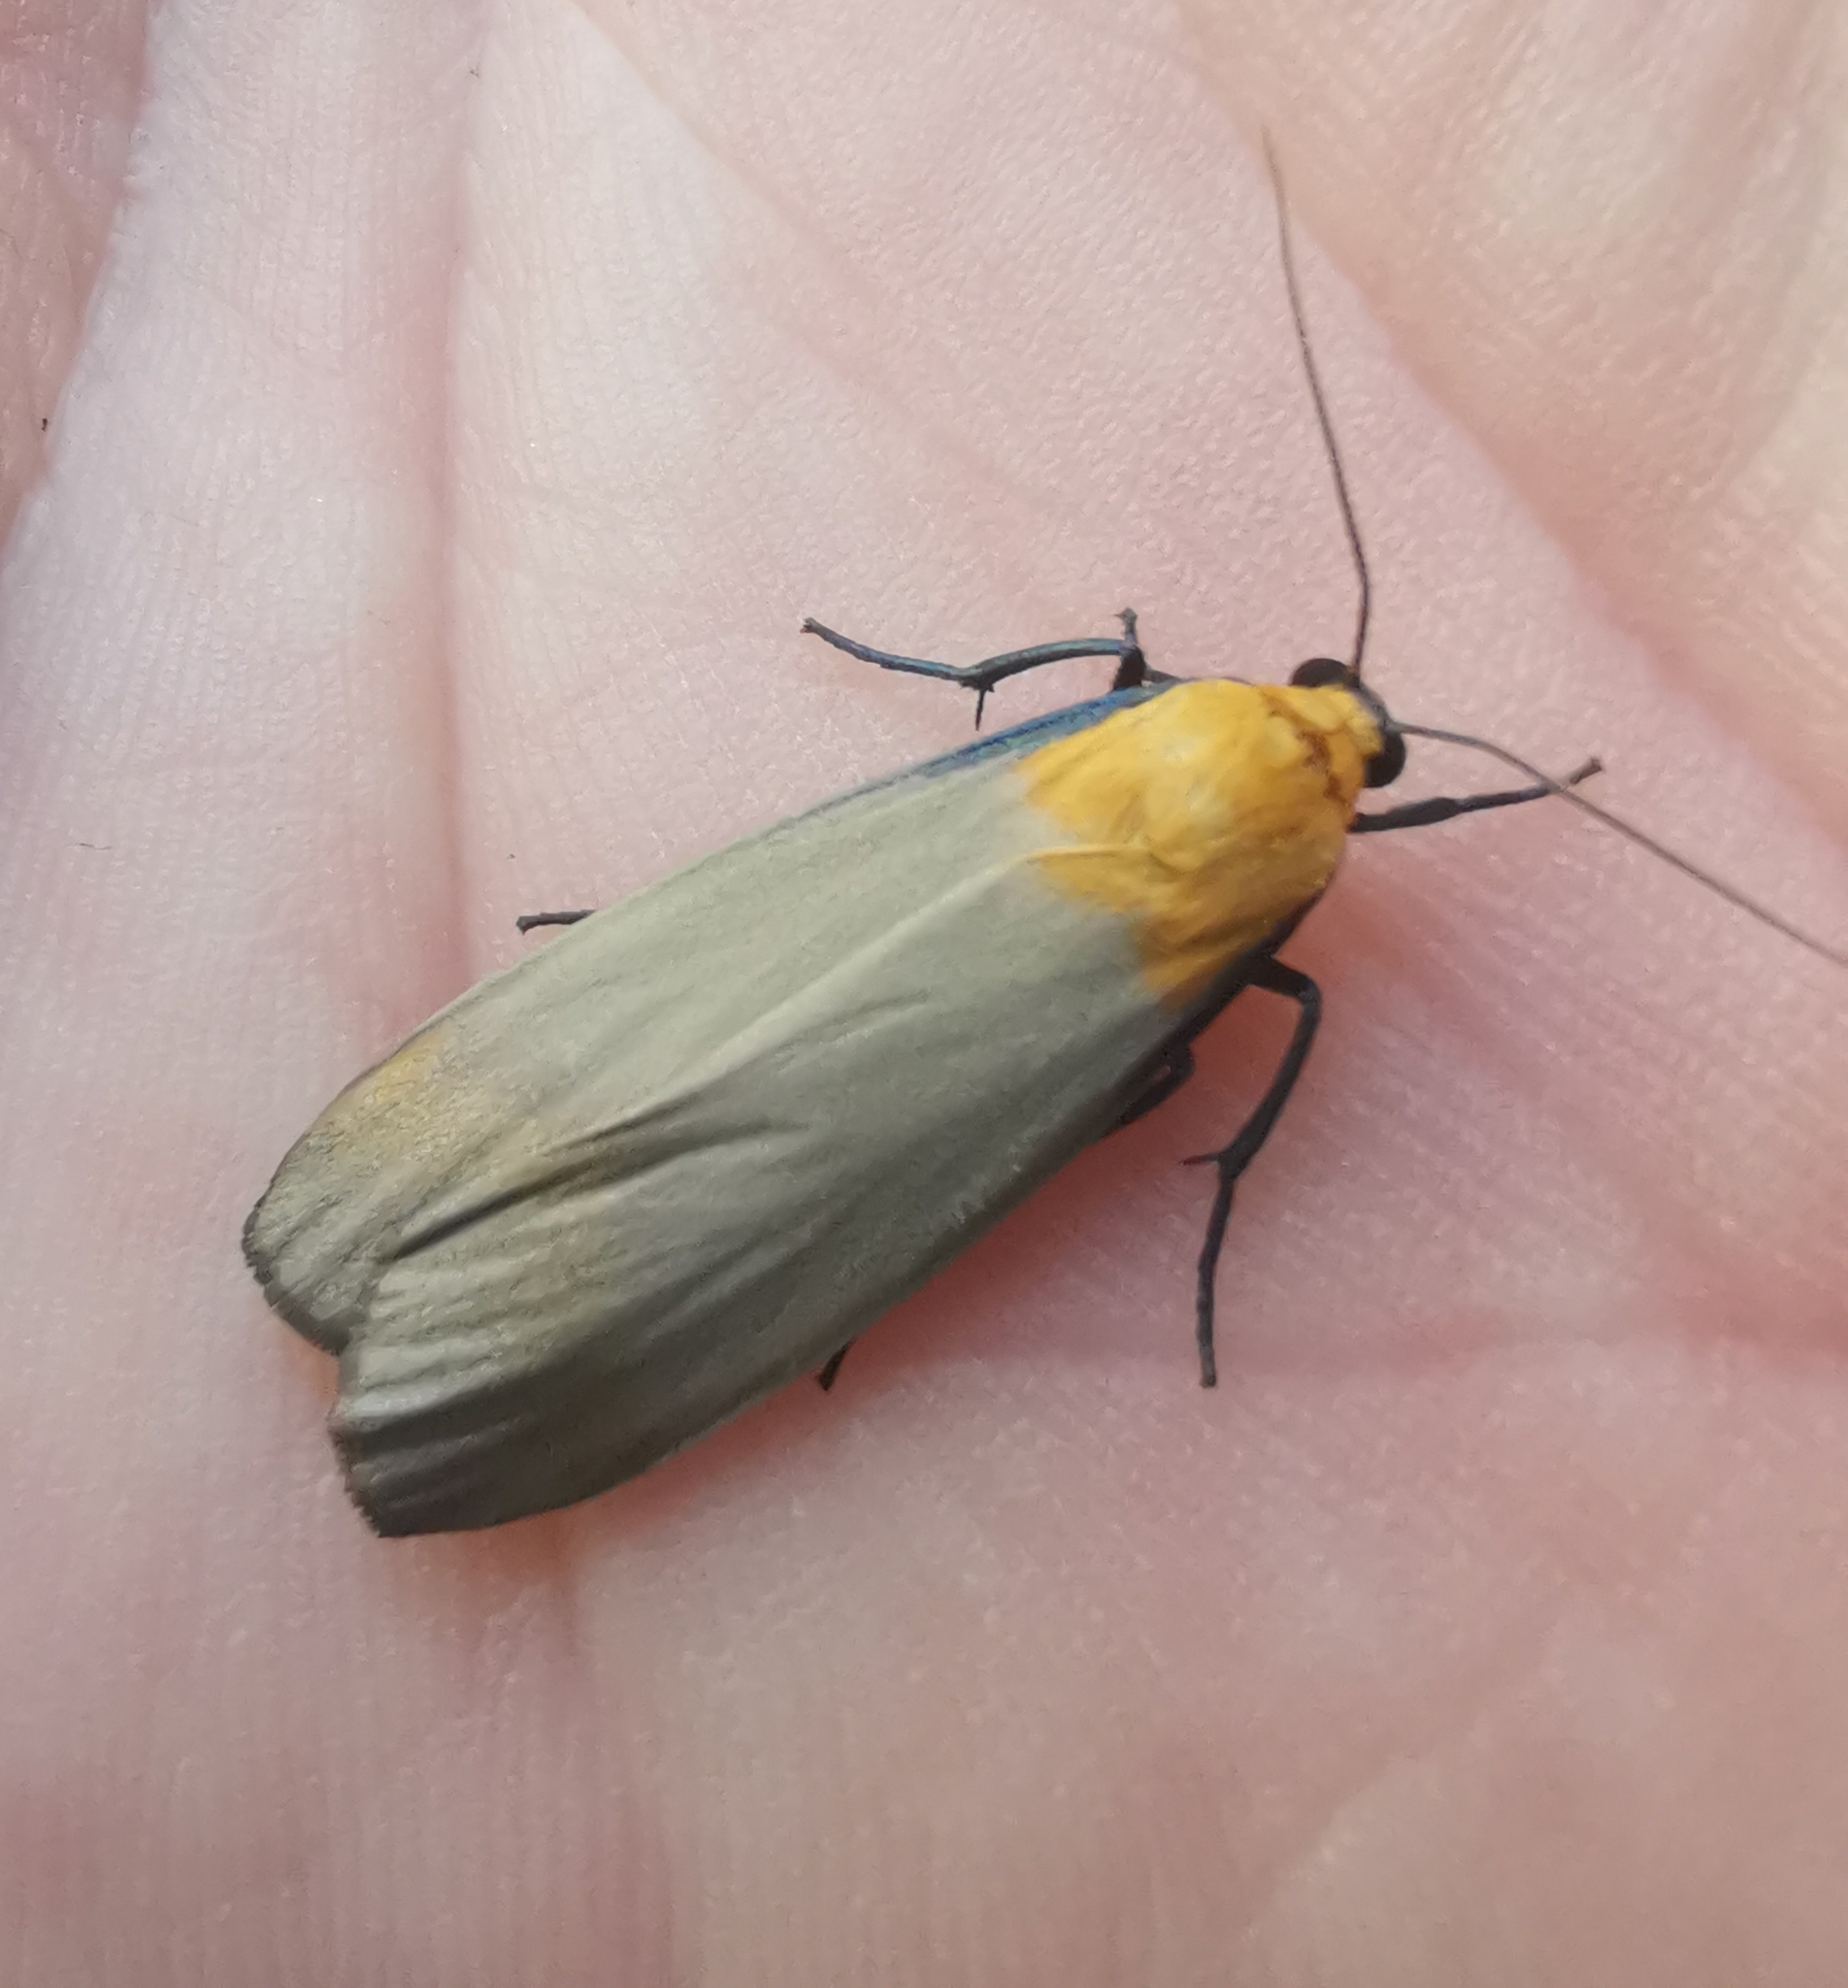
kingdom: Animalia
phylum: Arthropoda
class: Insecta
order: Lepidoptera
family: Erebidae
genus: Lithosia
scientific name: Lithosia quadra
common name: Four-spotted footman
